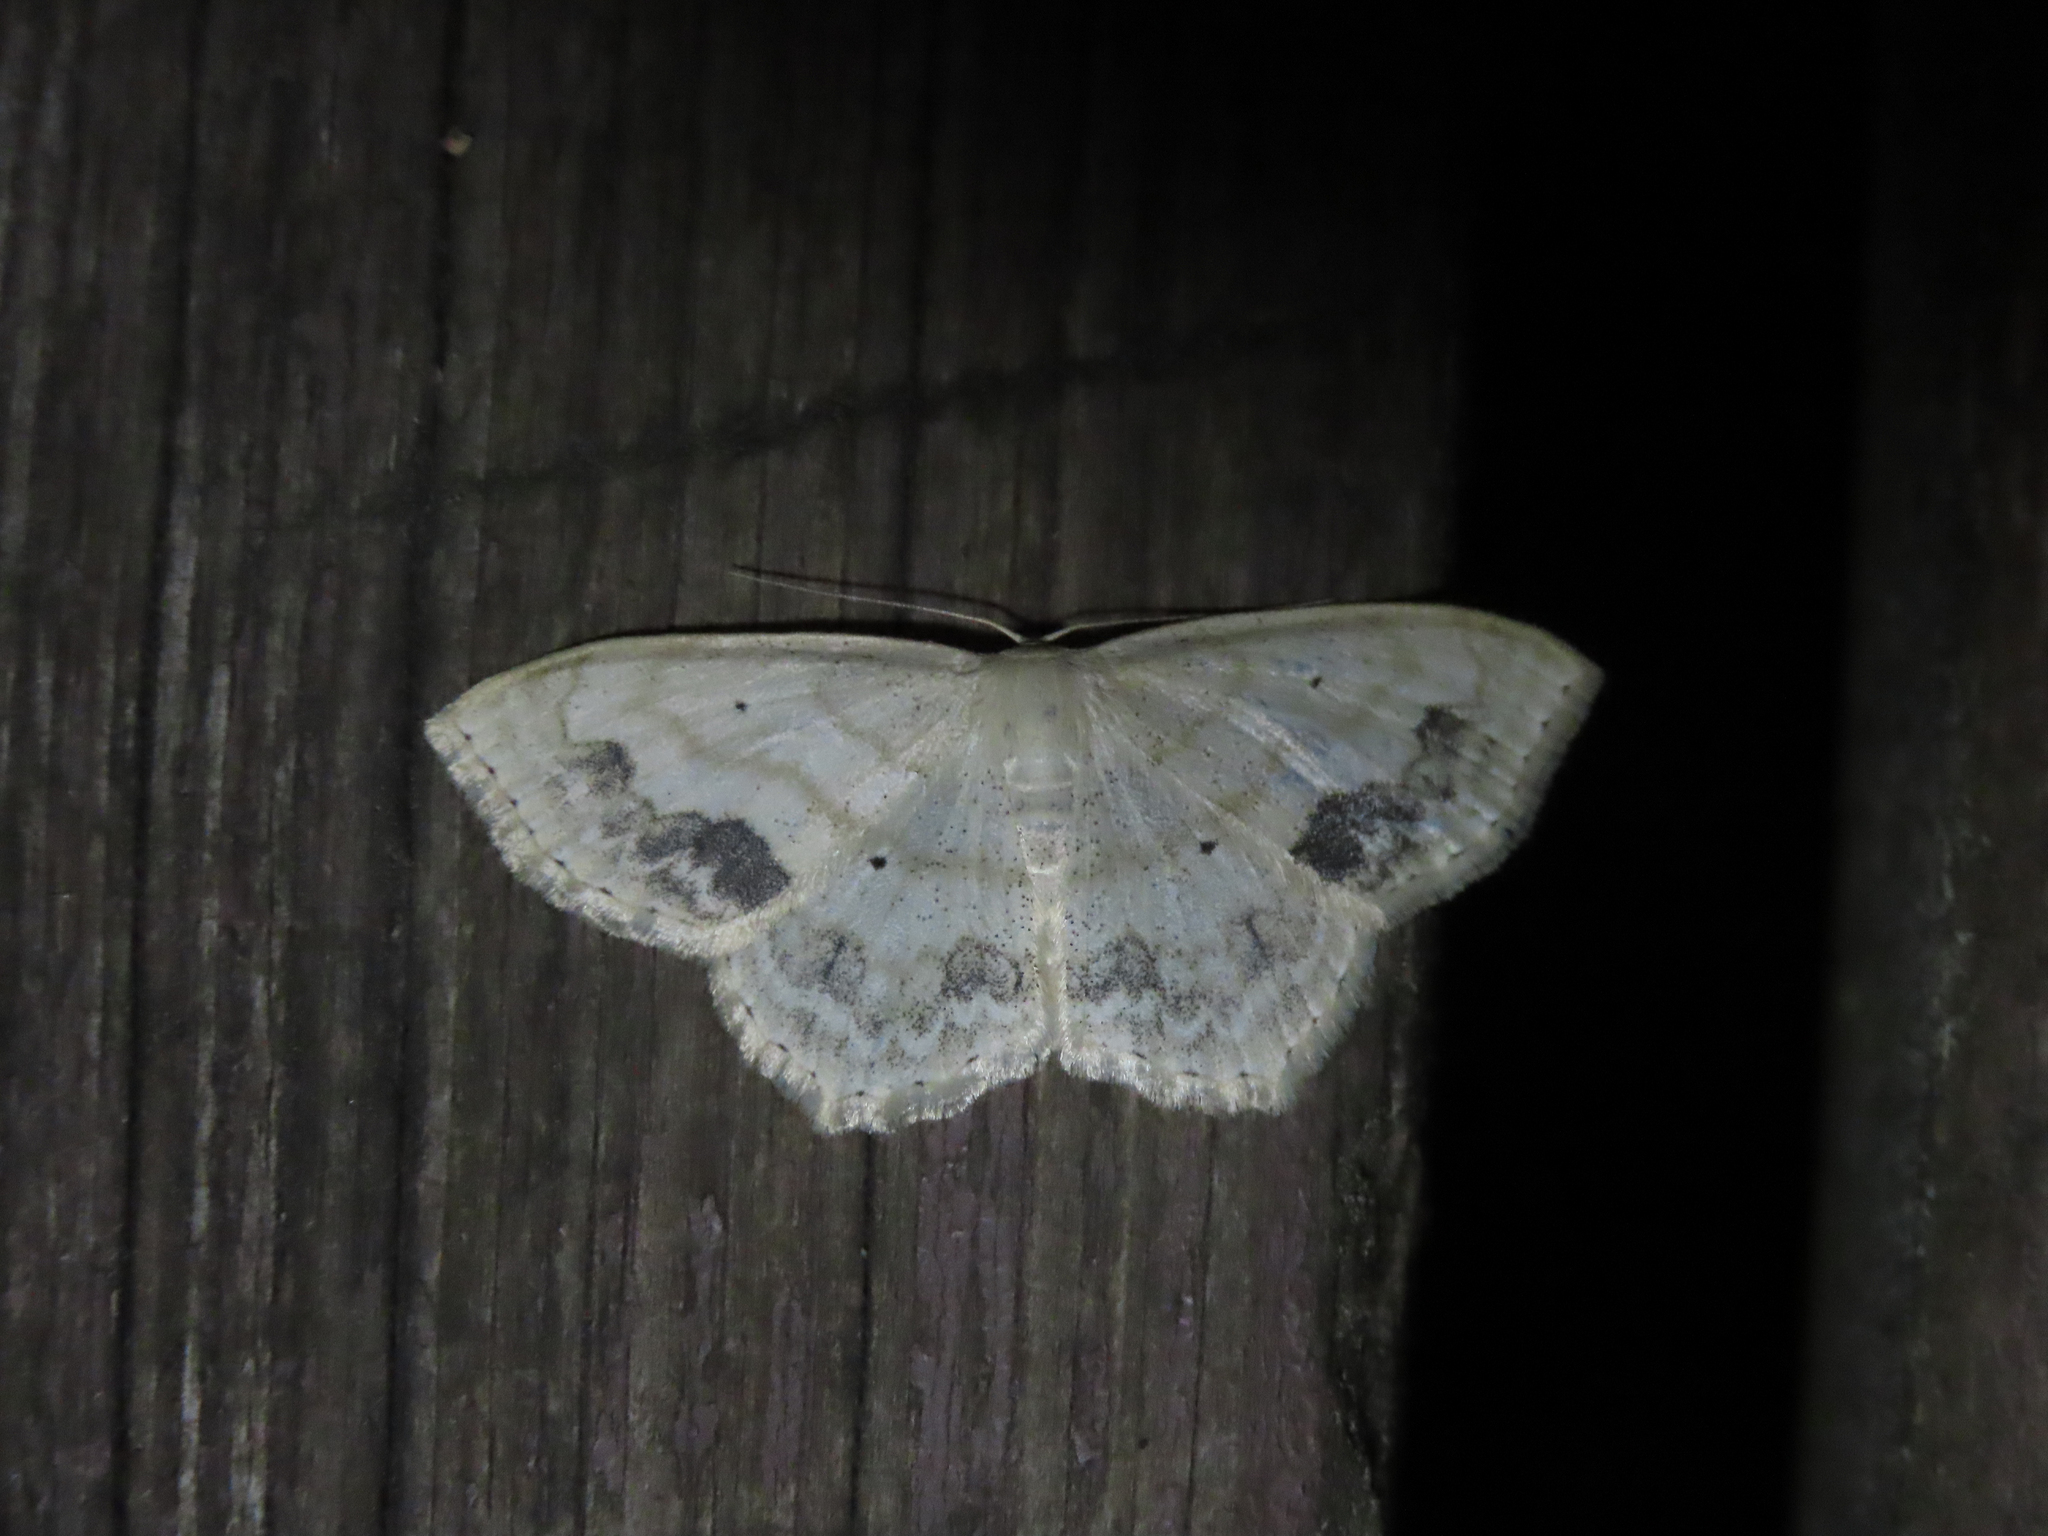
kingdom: Animalia
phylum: Arthropoda
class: Insecta
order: Lepidoptera
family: Geometridae
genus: Scopula
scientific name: Scopula limboundata
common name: Large lace border
